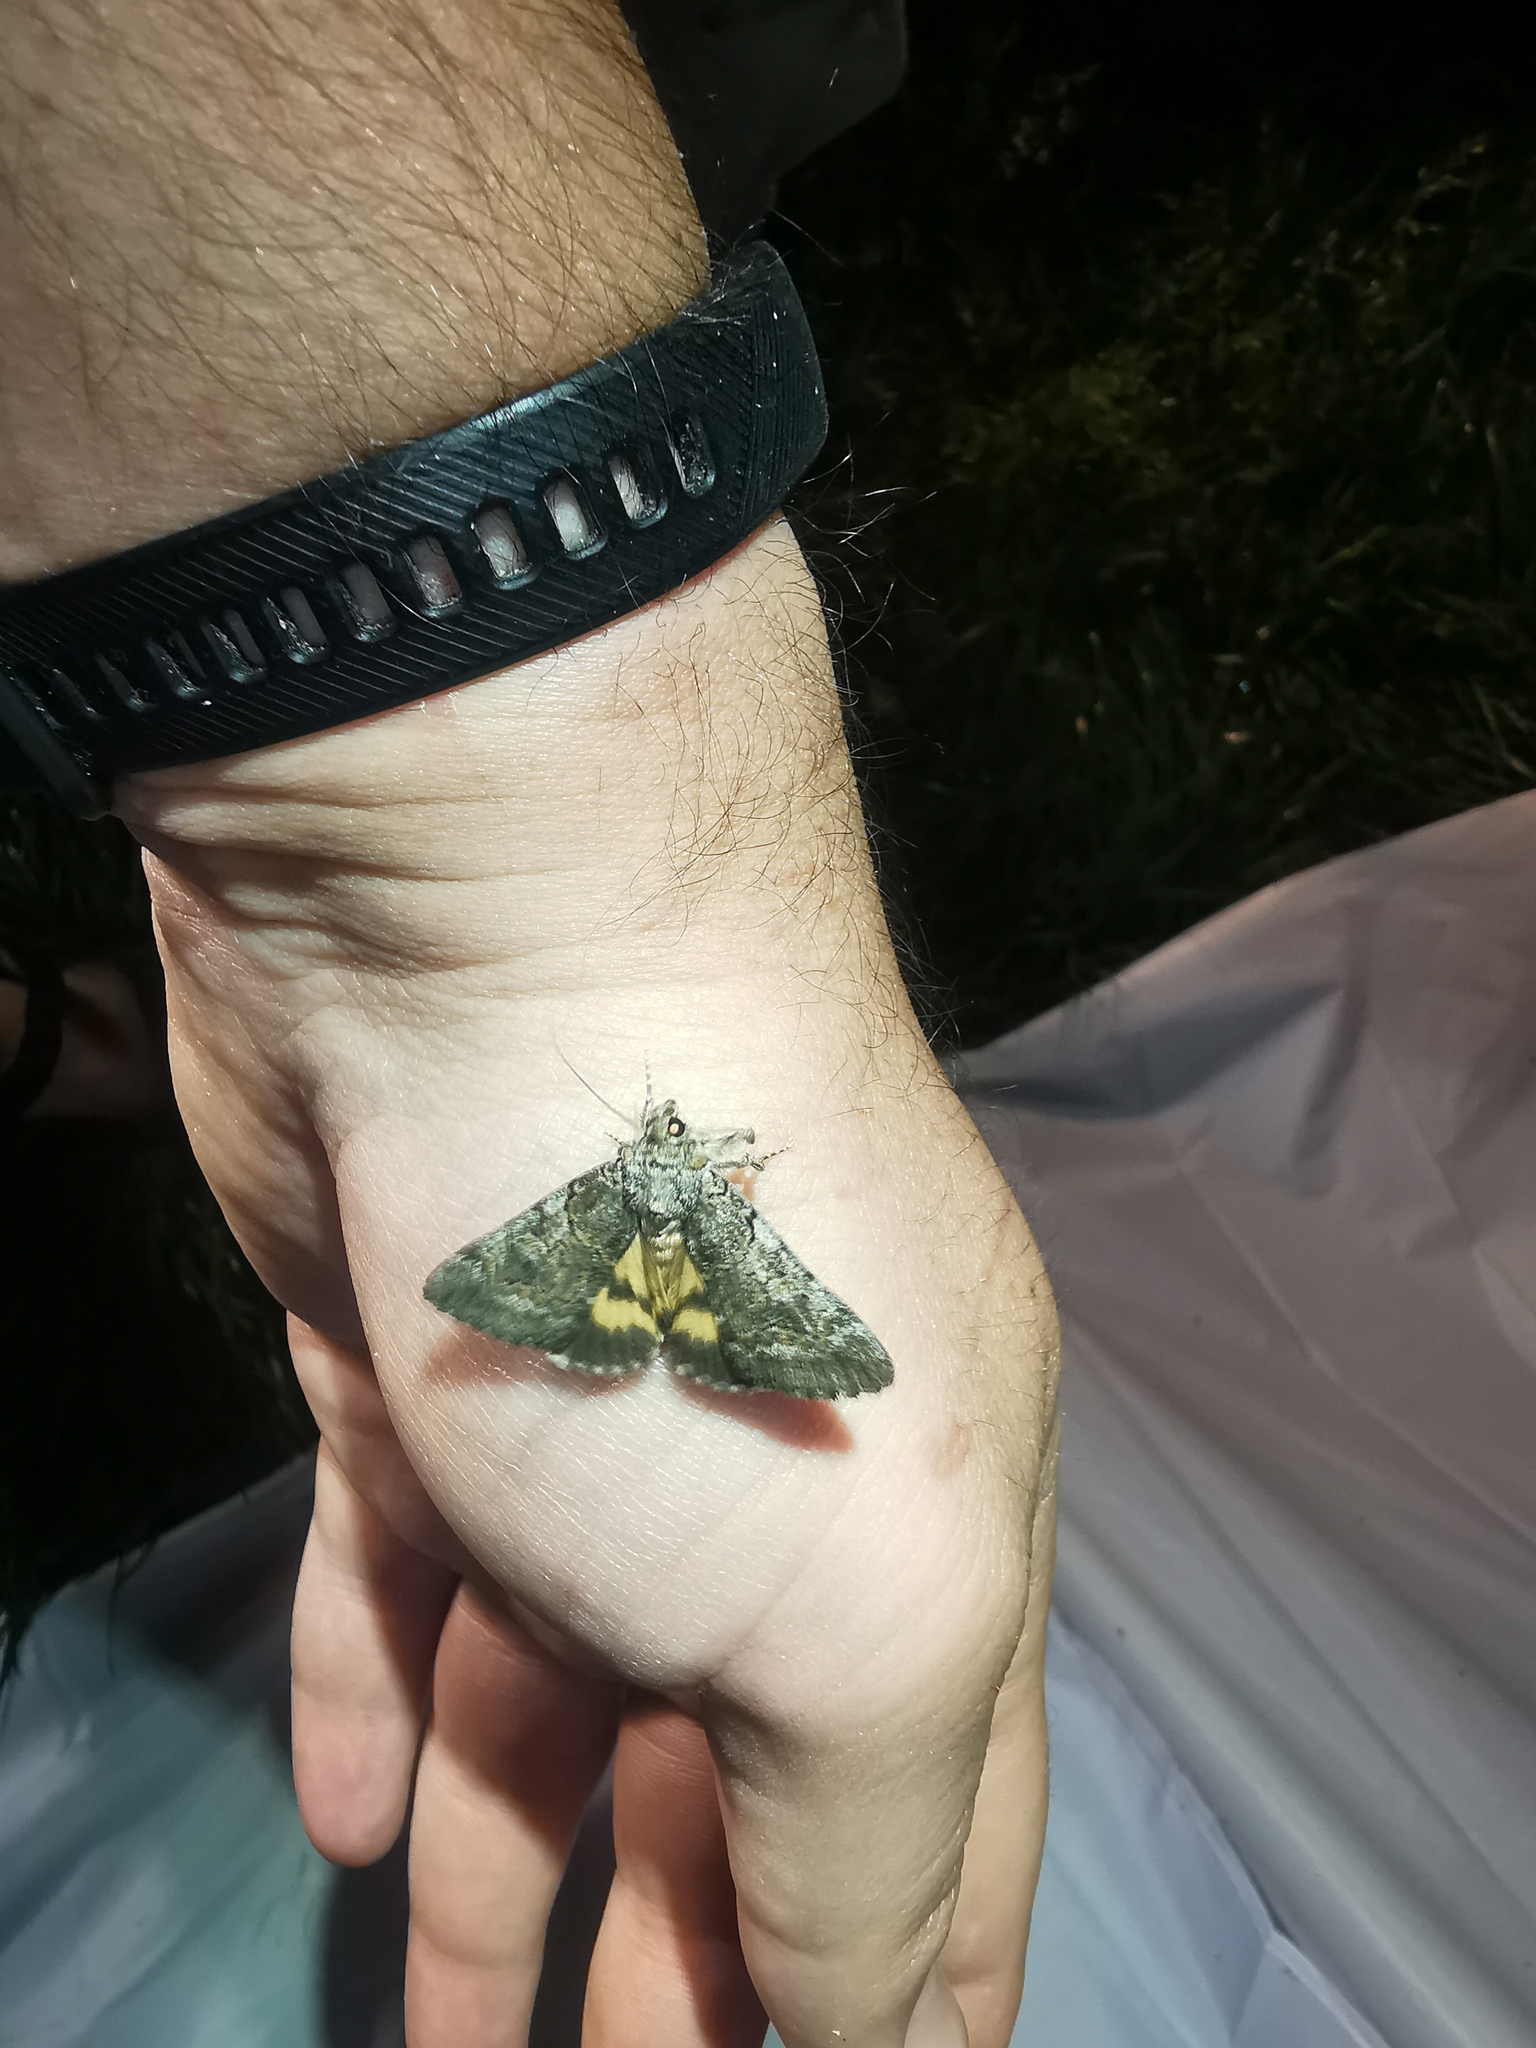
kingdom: Animalia
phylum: Arthropoda
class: Insecta
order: Lepidoptera
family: Erebidae
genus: Catocala
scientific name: Catocala eutychea
